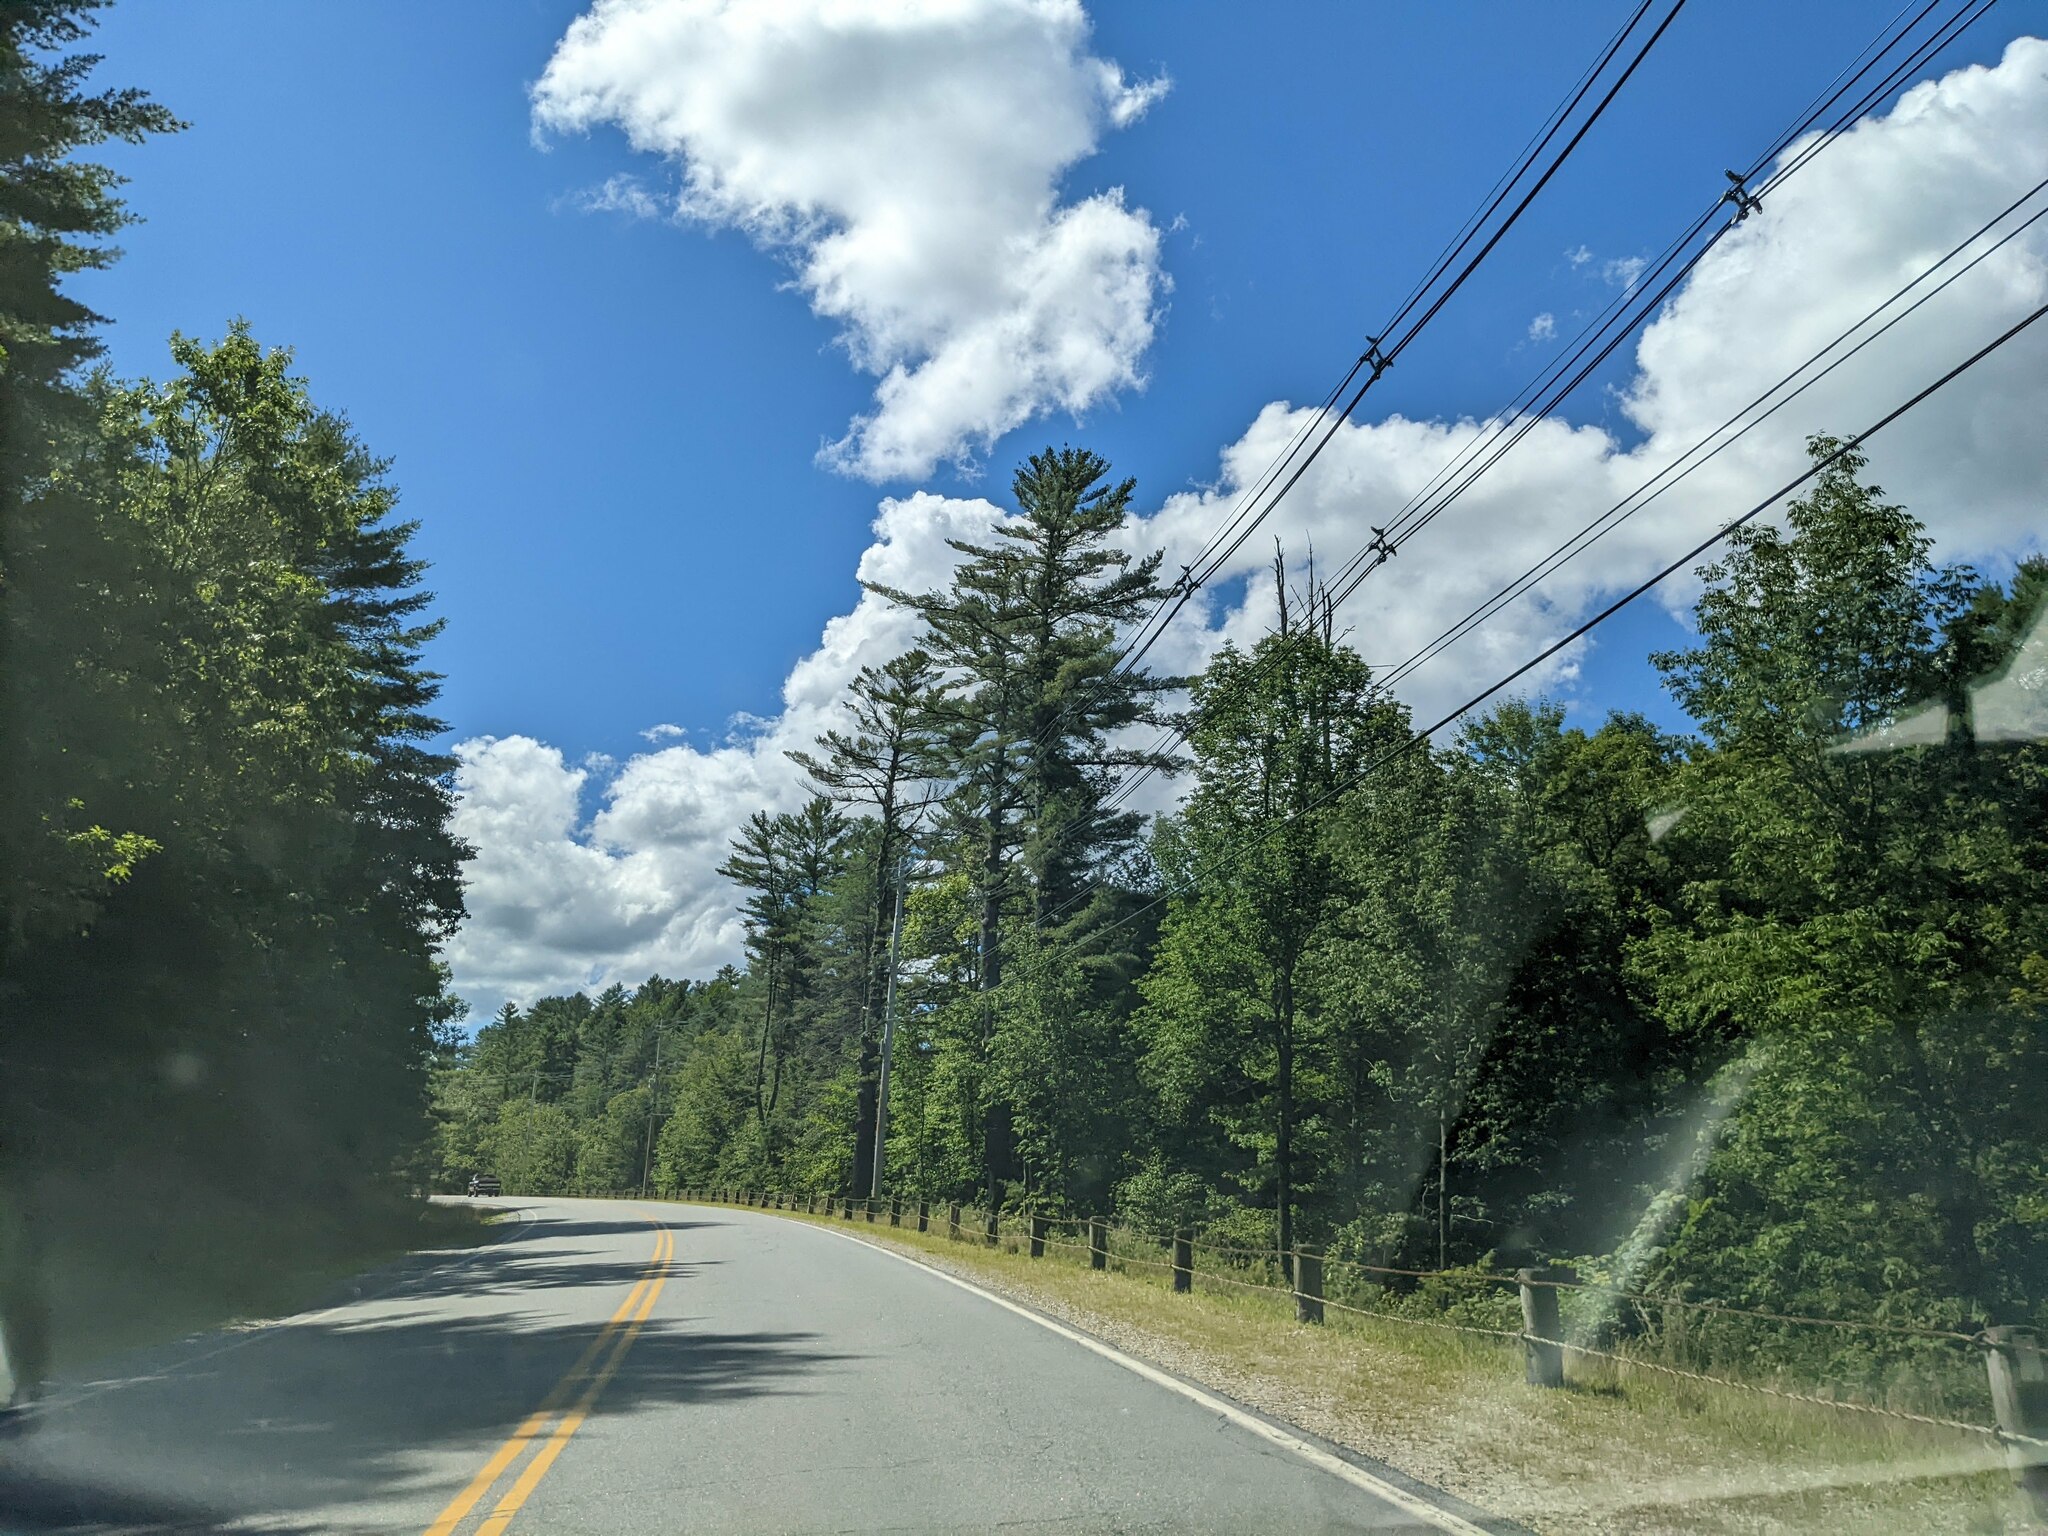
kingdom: Plantae
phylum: Tracheophyta
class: Pinopsida
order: Pinales
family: Pinaceae
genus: Pinus
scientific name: Pinus strobus
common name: Weymouth pine
